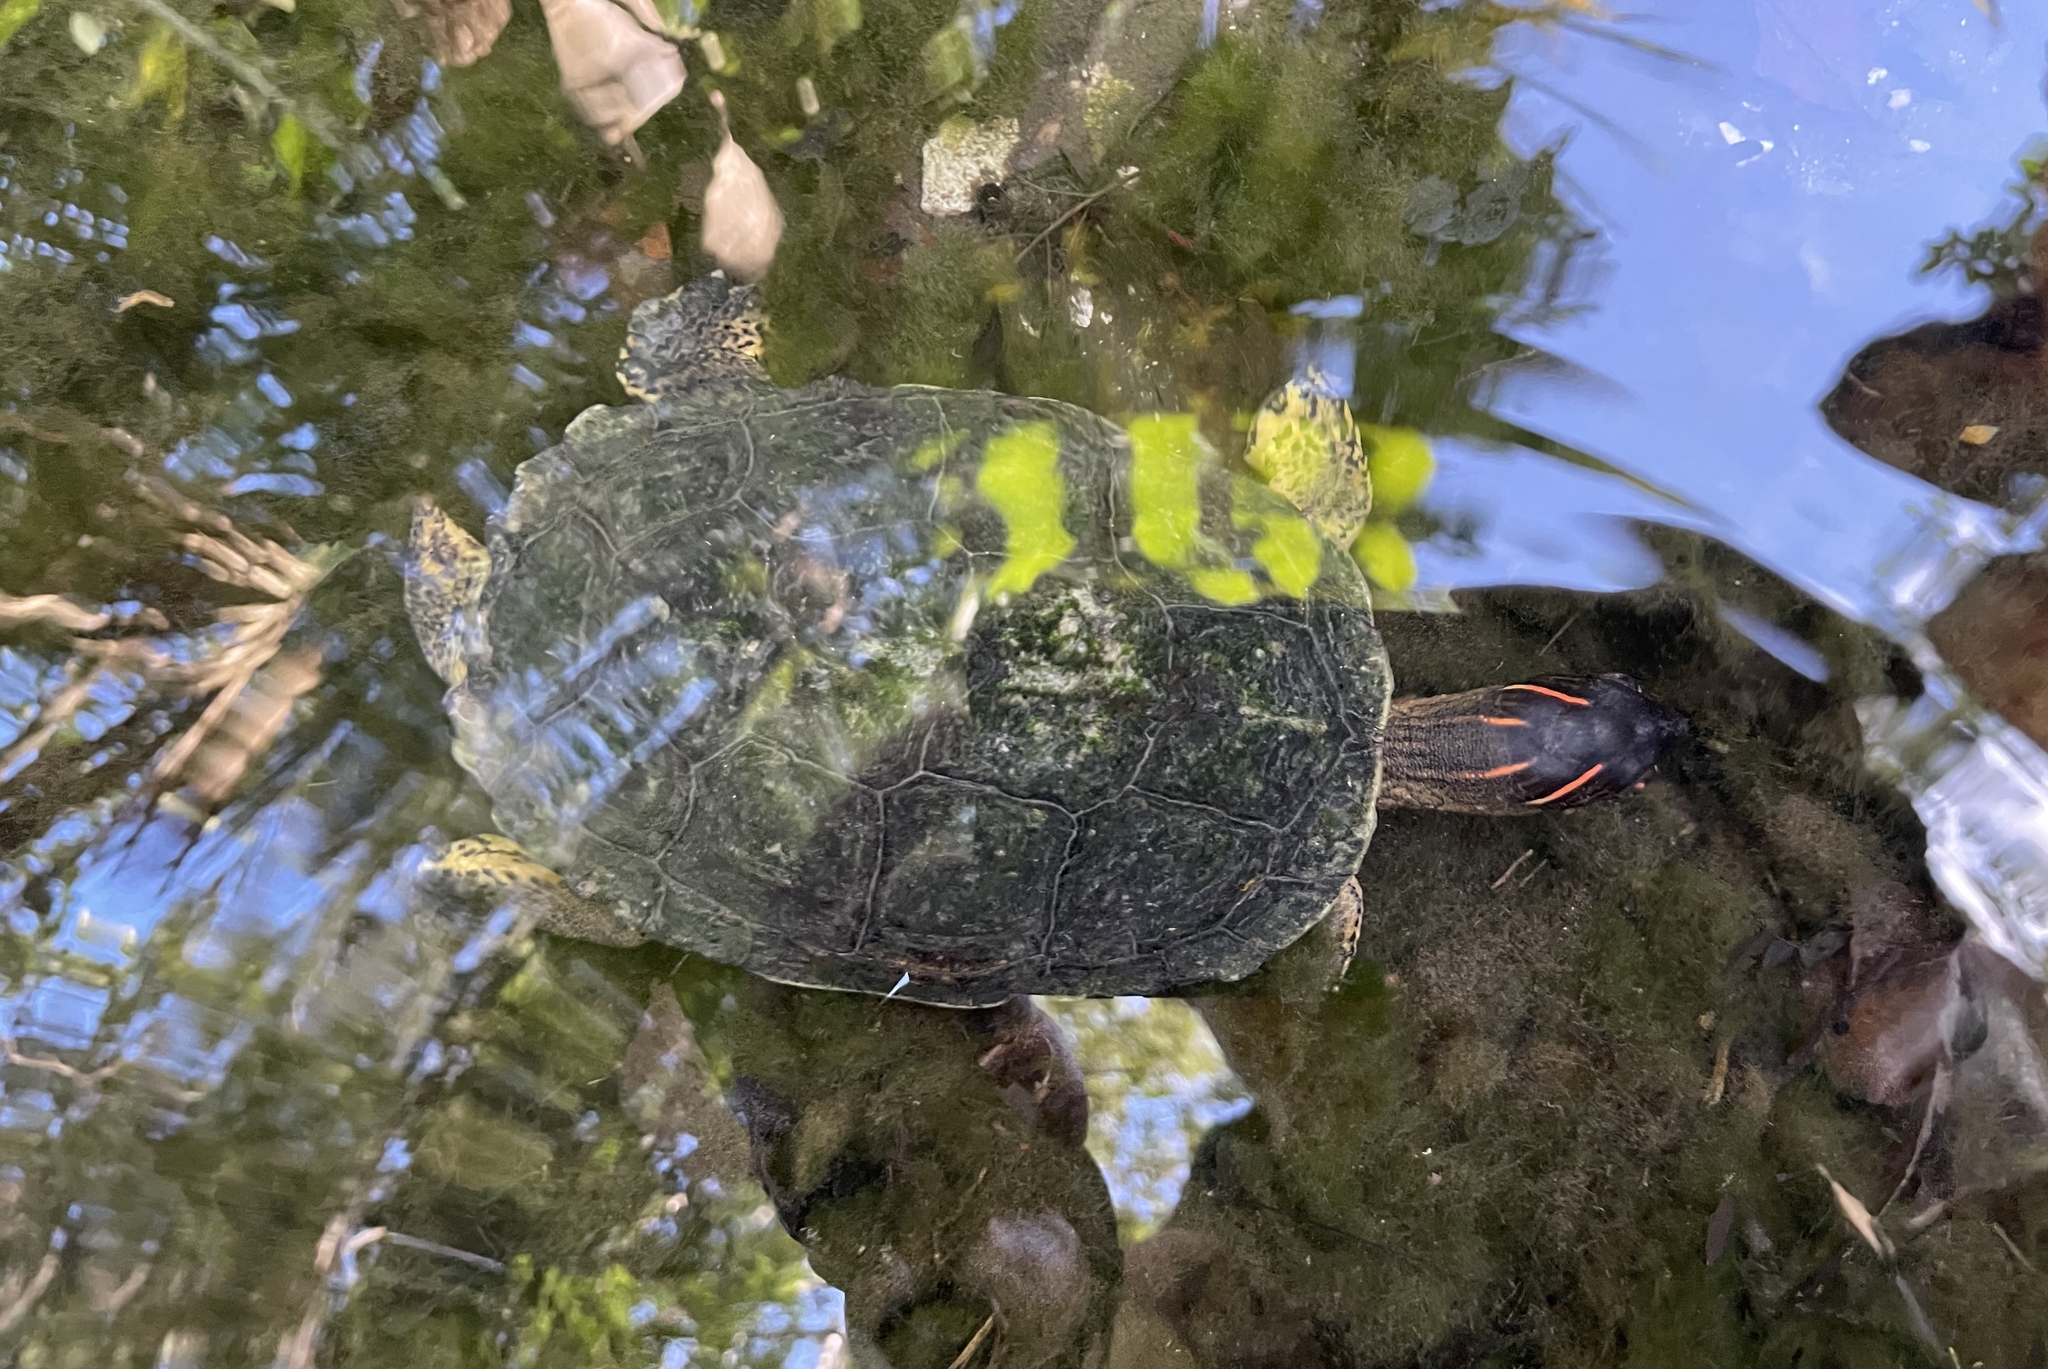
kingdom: Animalia
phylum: Chordata
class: Testudines
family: Geoemydidae
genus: Rhinoclemmys
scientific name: Rhinoclemmys areolata
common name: Furrowed wood turtle
